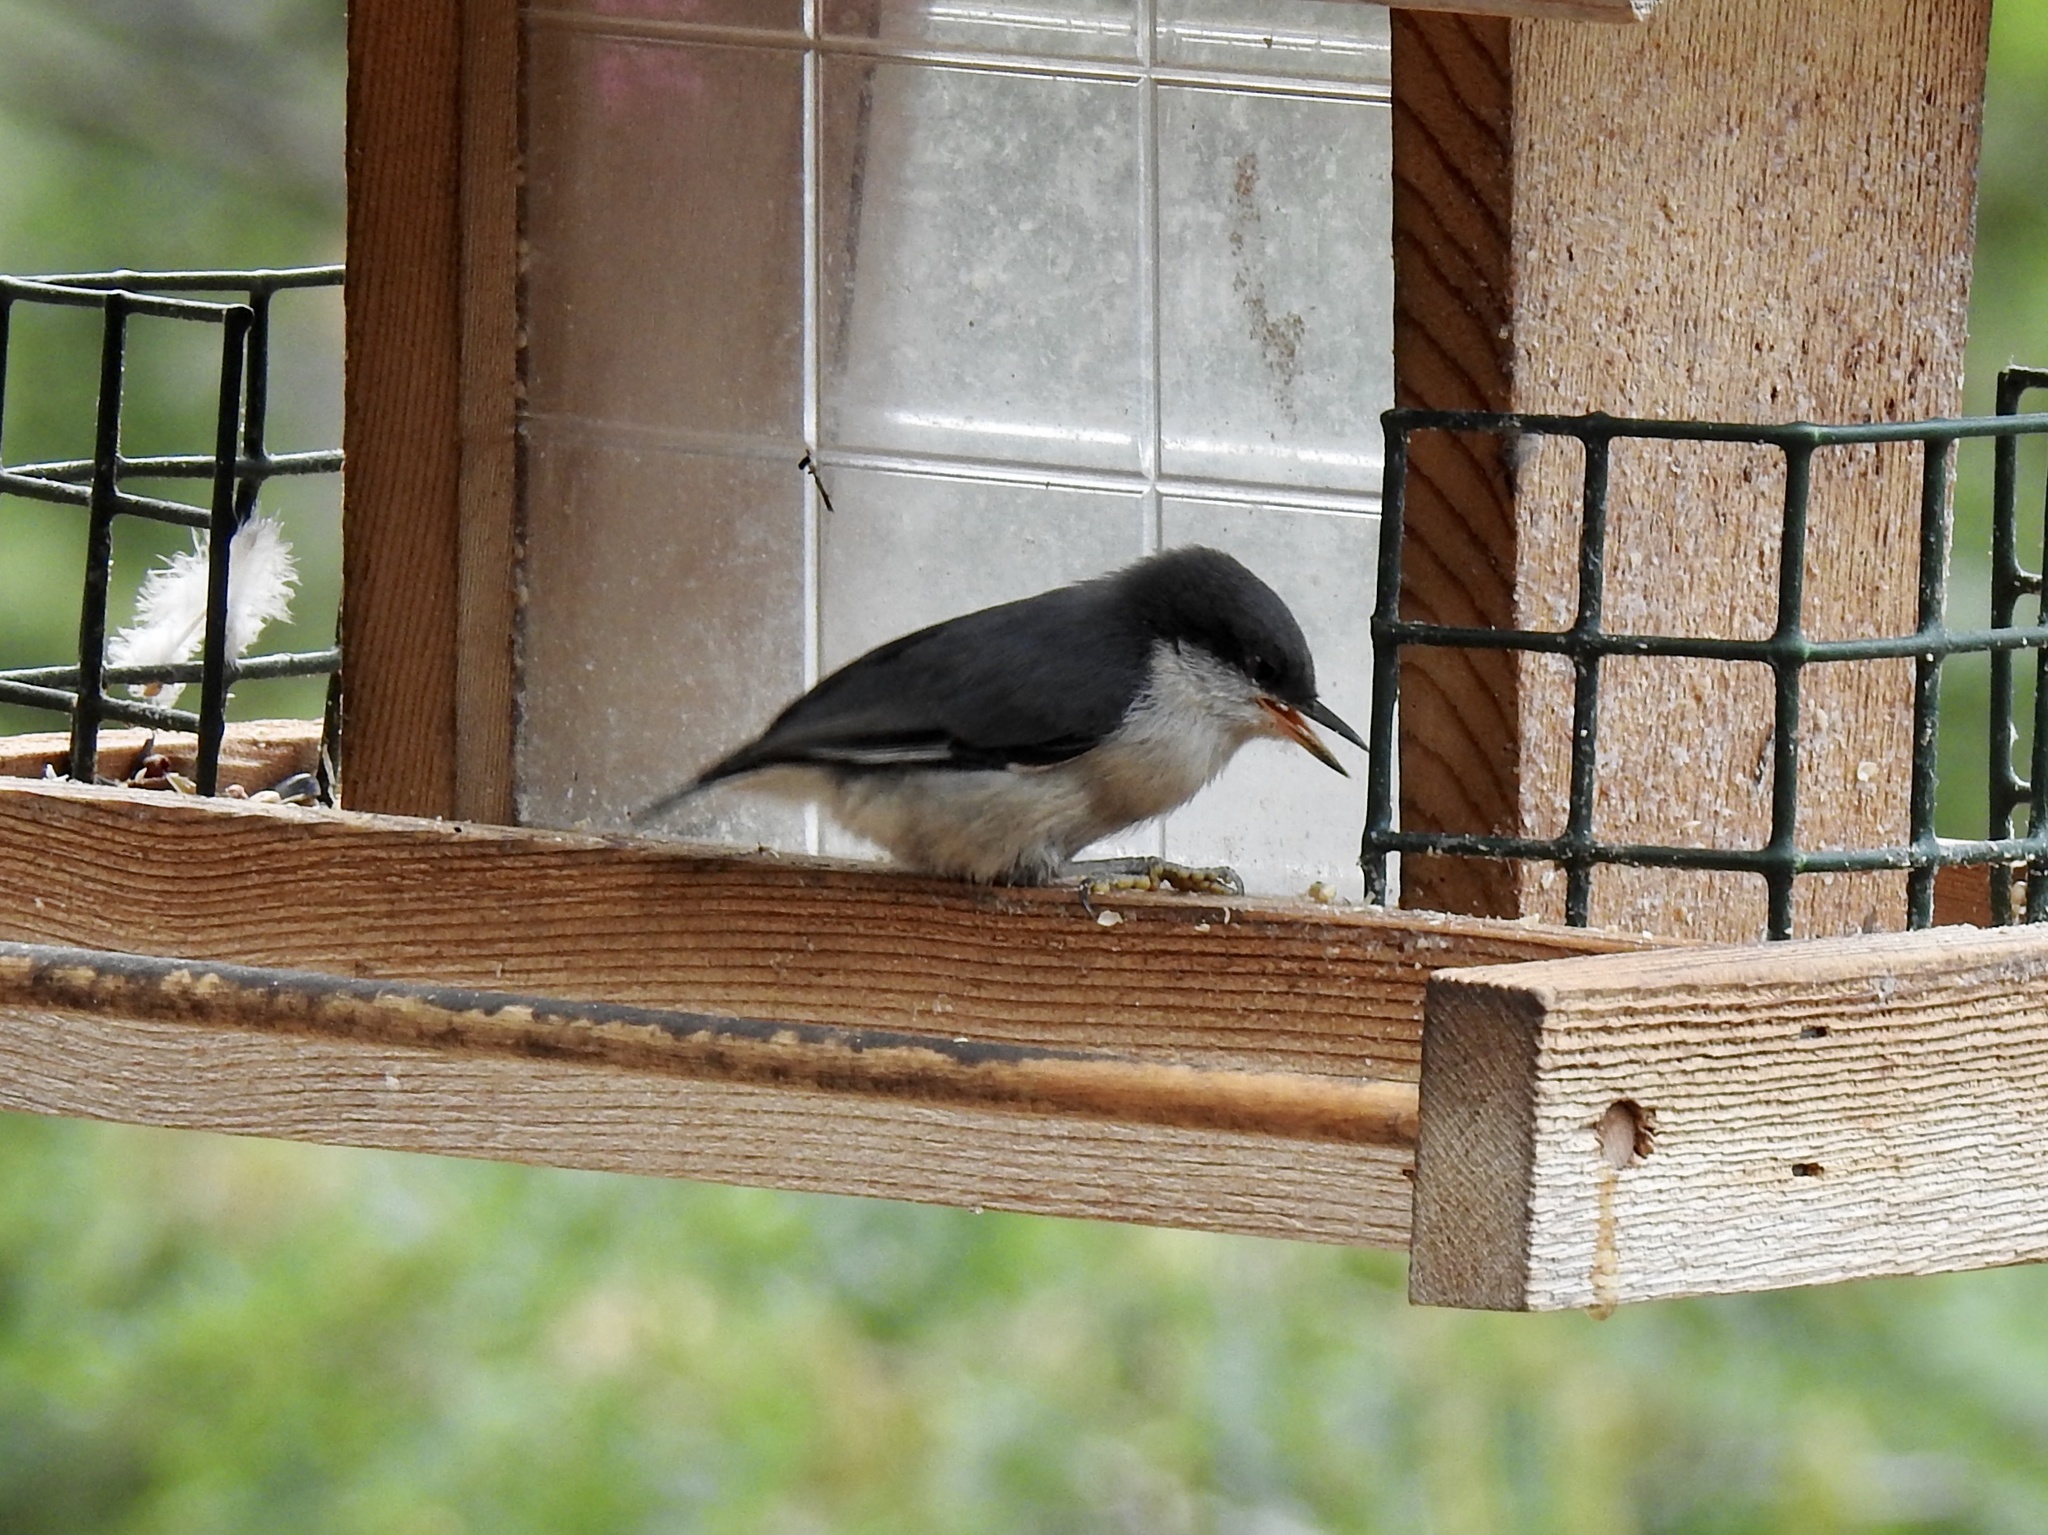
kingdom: Animalia
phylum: Chordata
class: Aves
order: Passeriformes
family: Sittidae
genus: Sitta
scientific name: Sitta pygmaea
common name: Pygmy nuthatch
